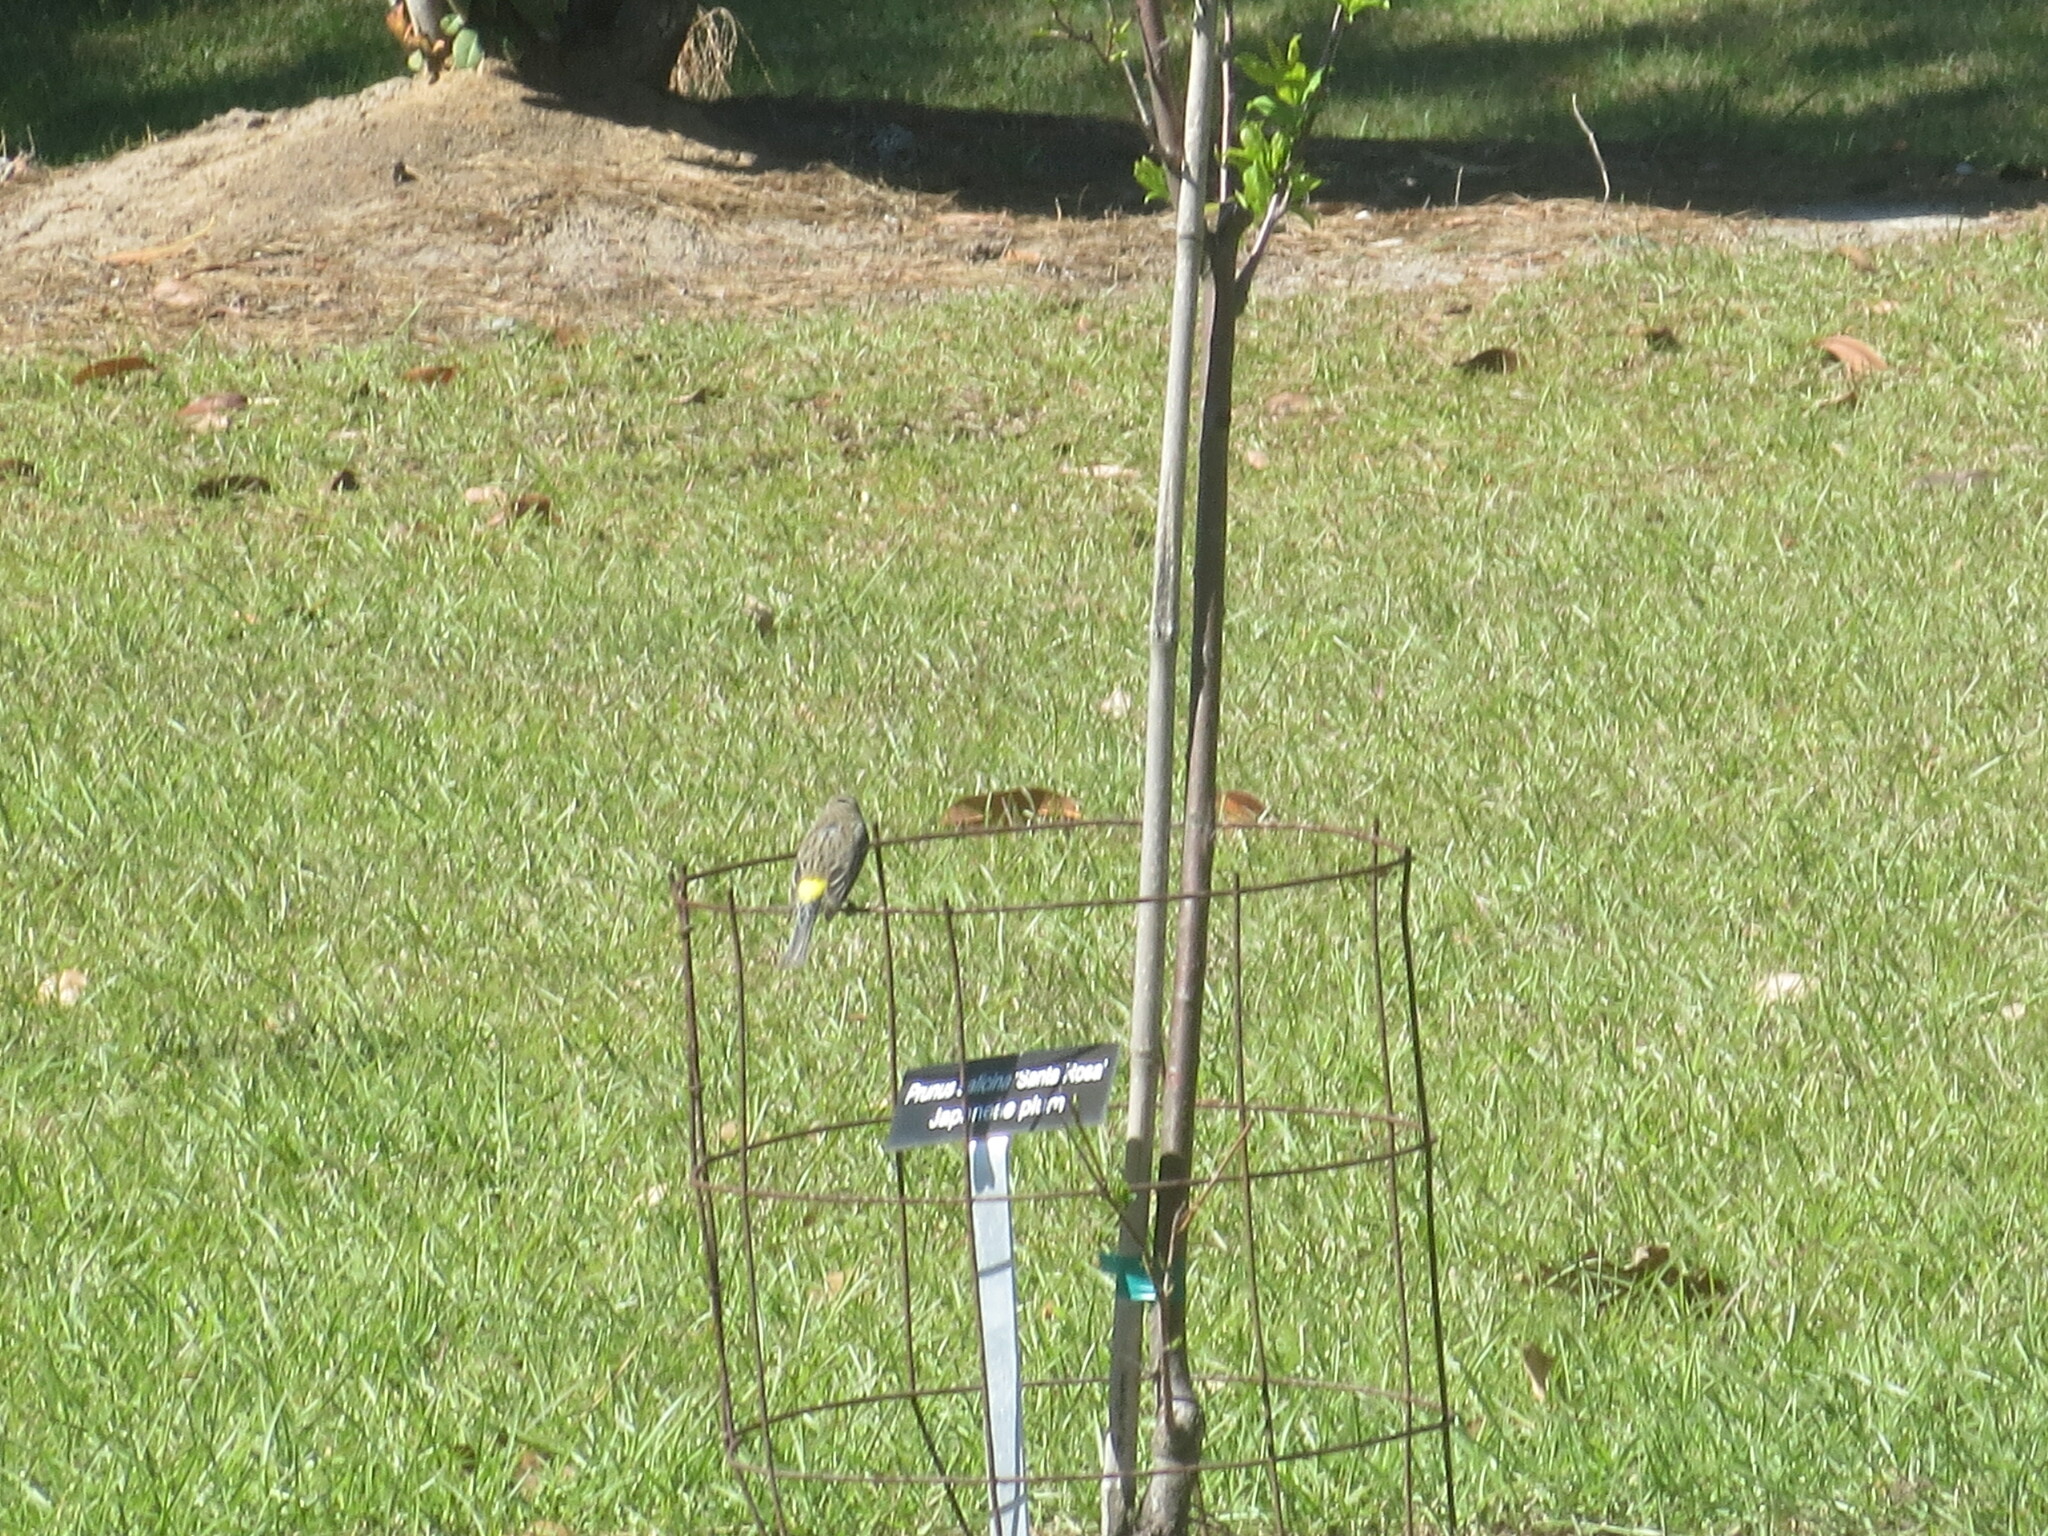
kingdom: Animalia
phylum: Chordata
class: Aves
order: Passeriformes
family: Parulidae
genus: Setophaga
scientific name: Setophaga coronata
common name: Myrtle warbler
